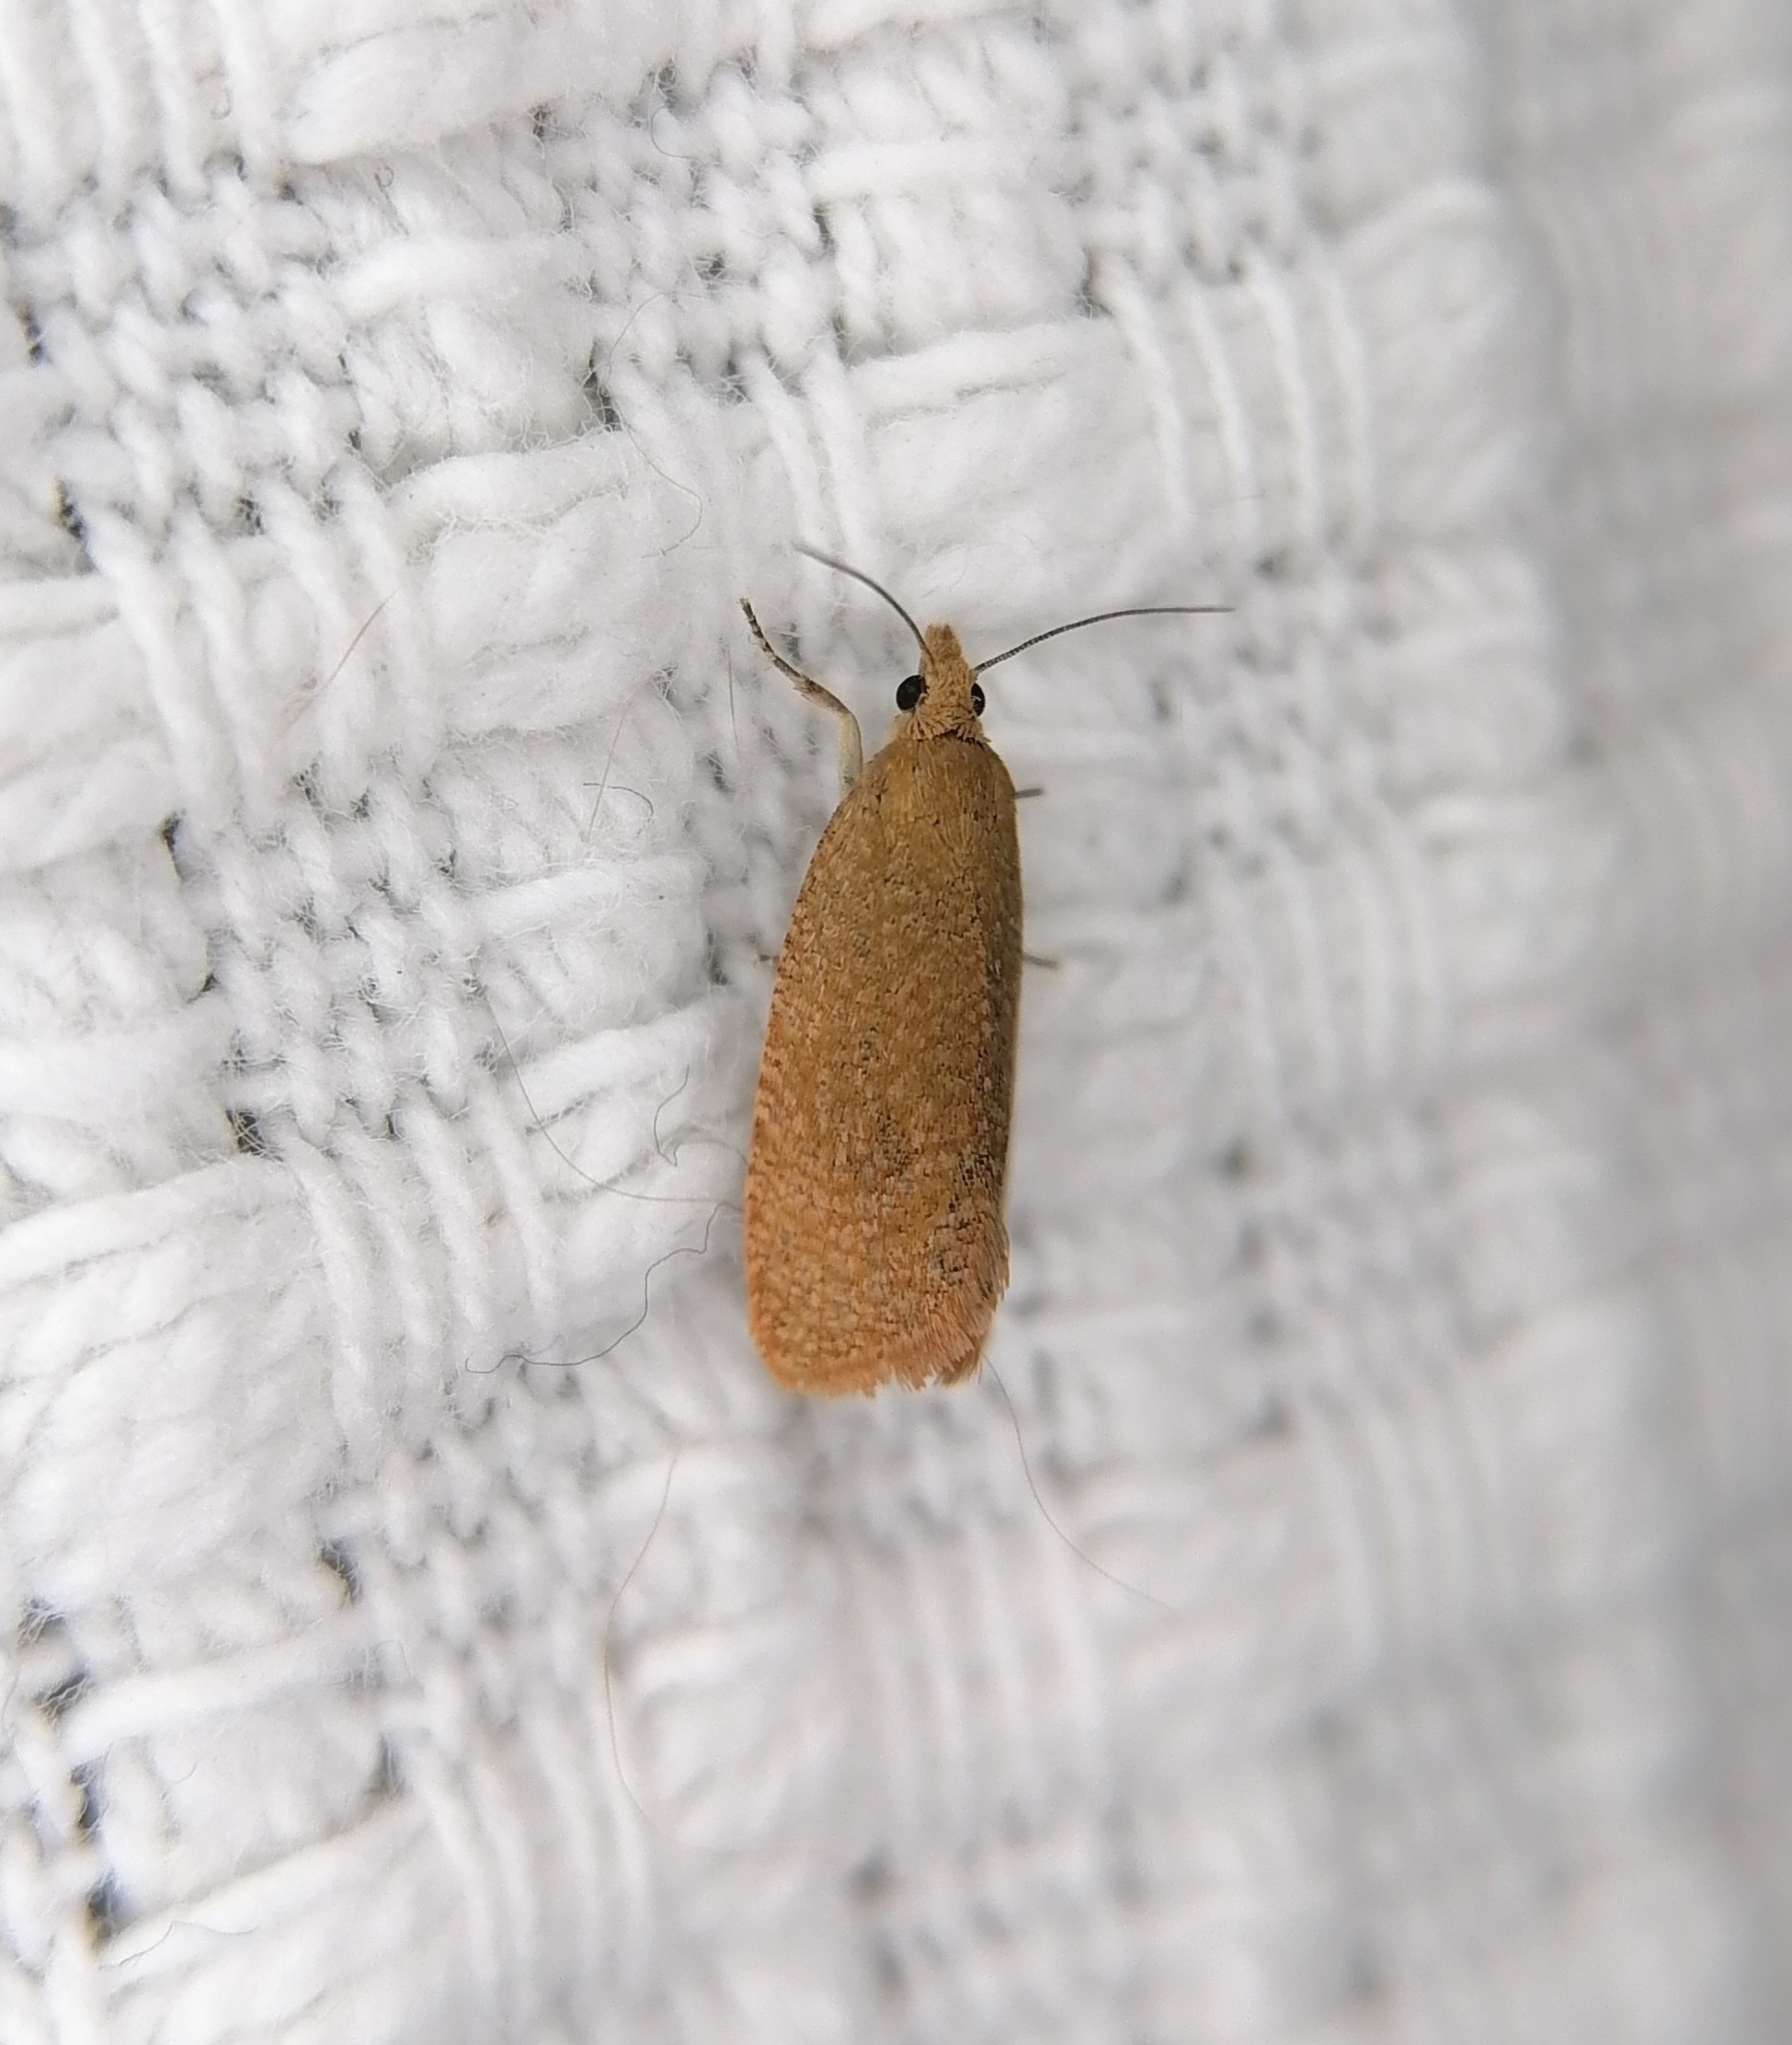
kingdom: Animalia
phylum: Arthropoda
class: Insecta
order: Lepidoptera
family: Tortricidae
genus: Celypha
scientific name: Celypha rufana
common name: Lakes marble
